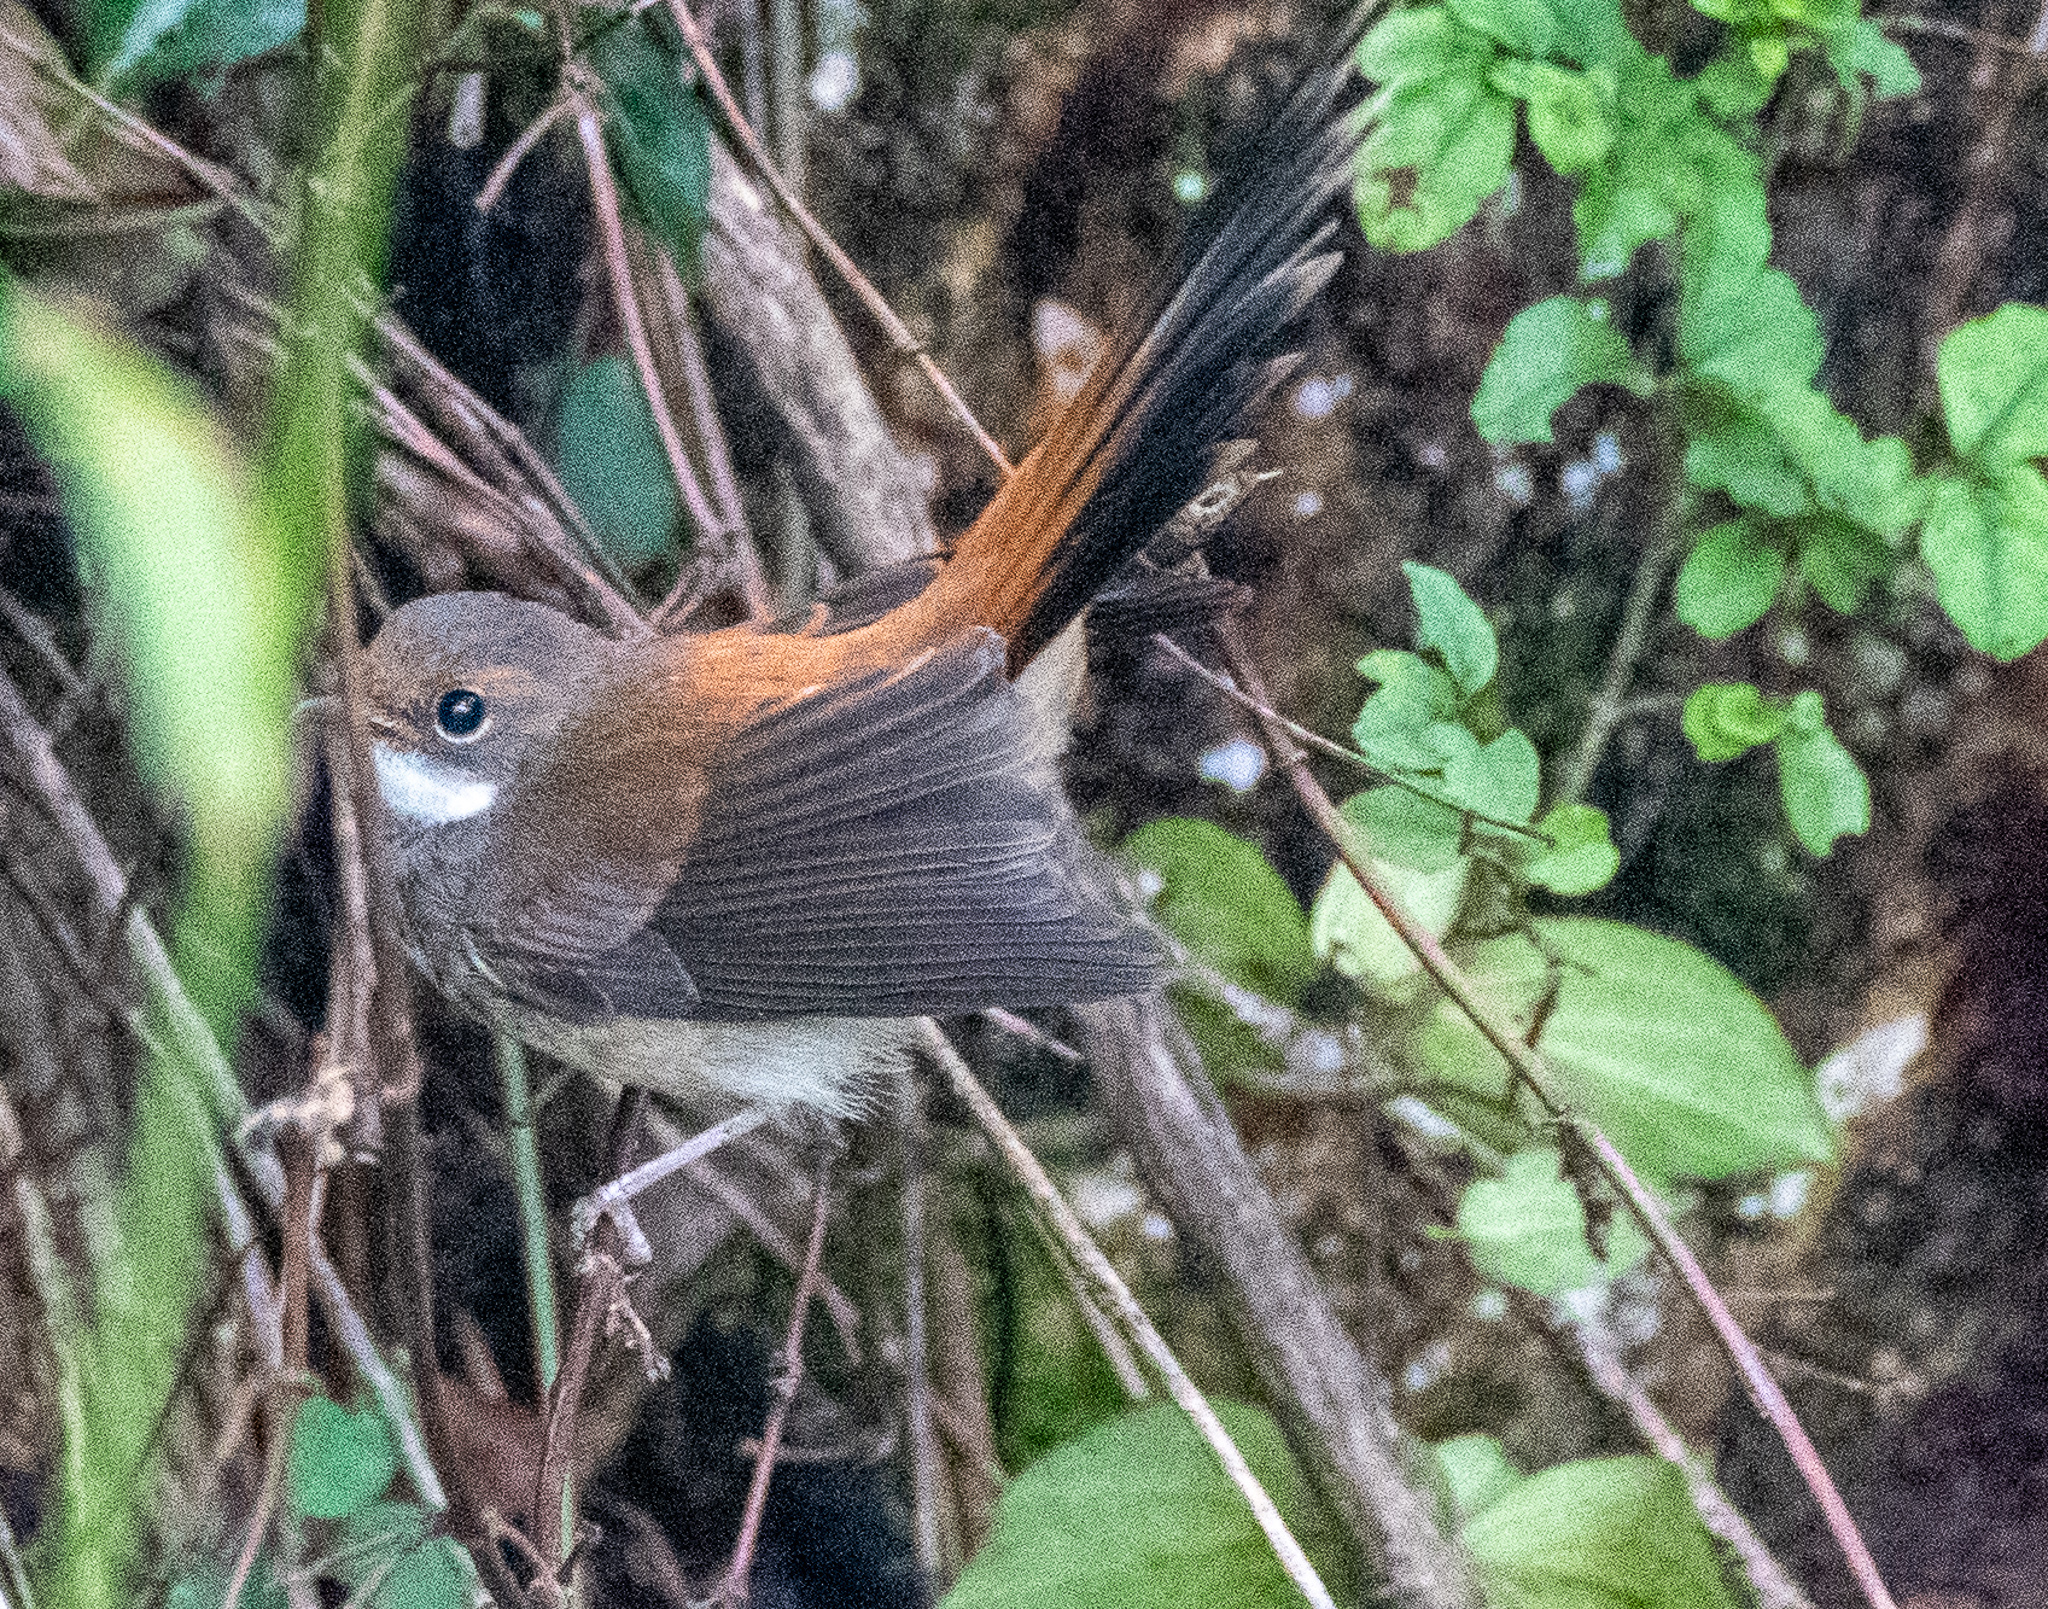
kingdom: Animalia
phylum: Chordata
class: Aves
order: Passeriformes
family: Rhipiduridae
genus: Rhipidura
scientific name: Rhipidura rufifrons
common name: Rufous fantail
